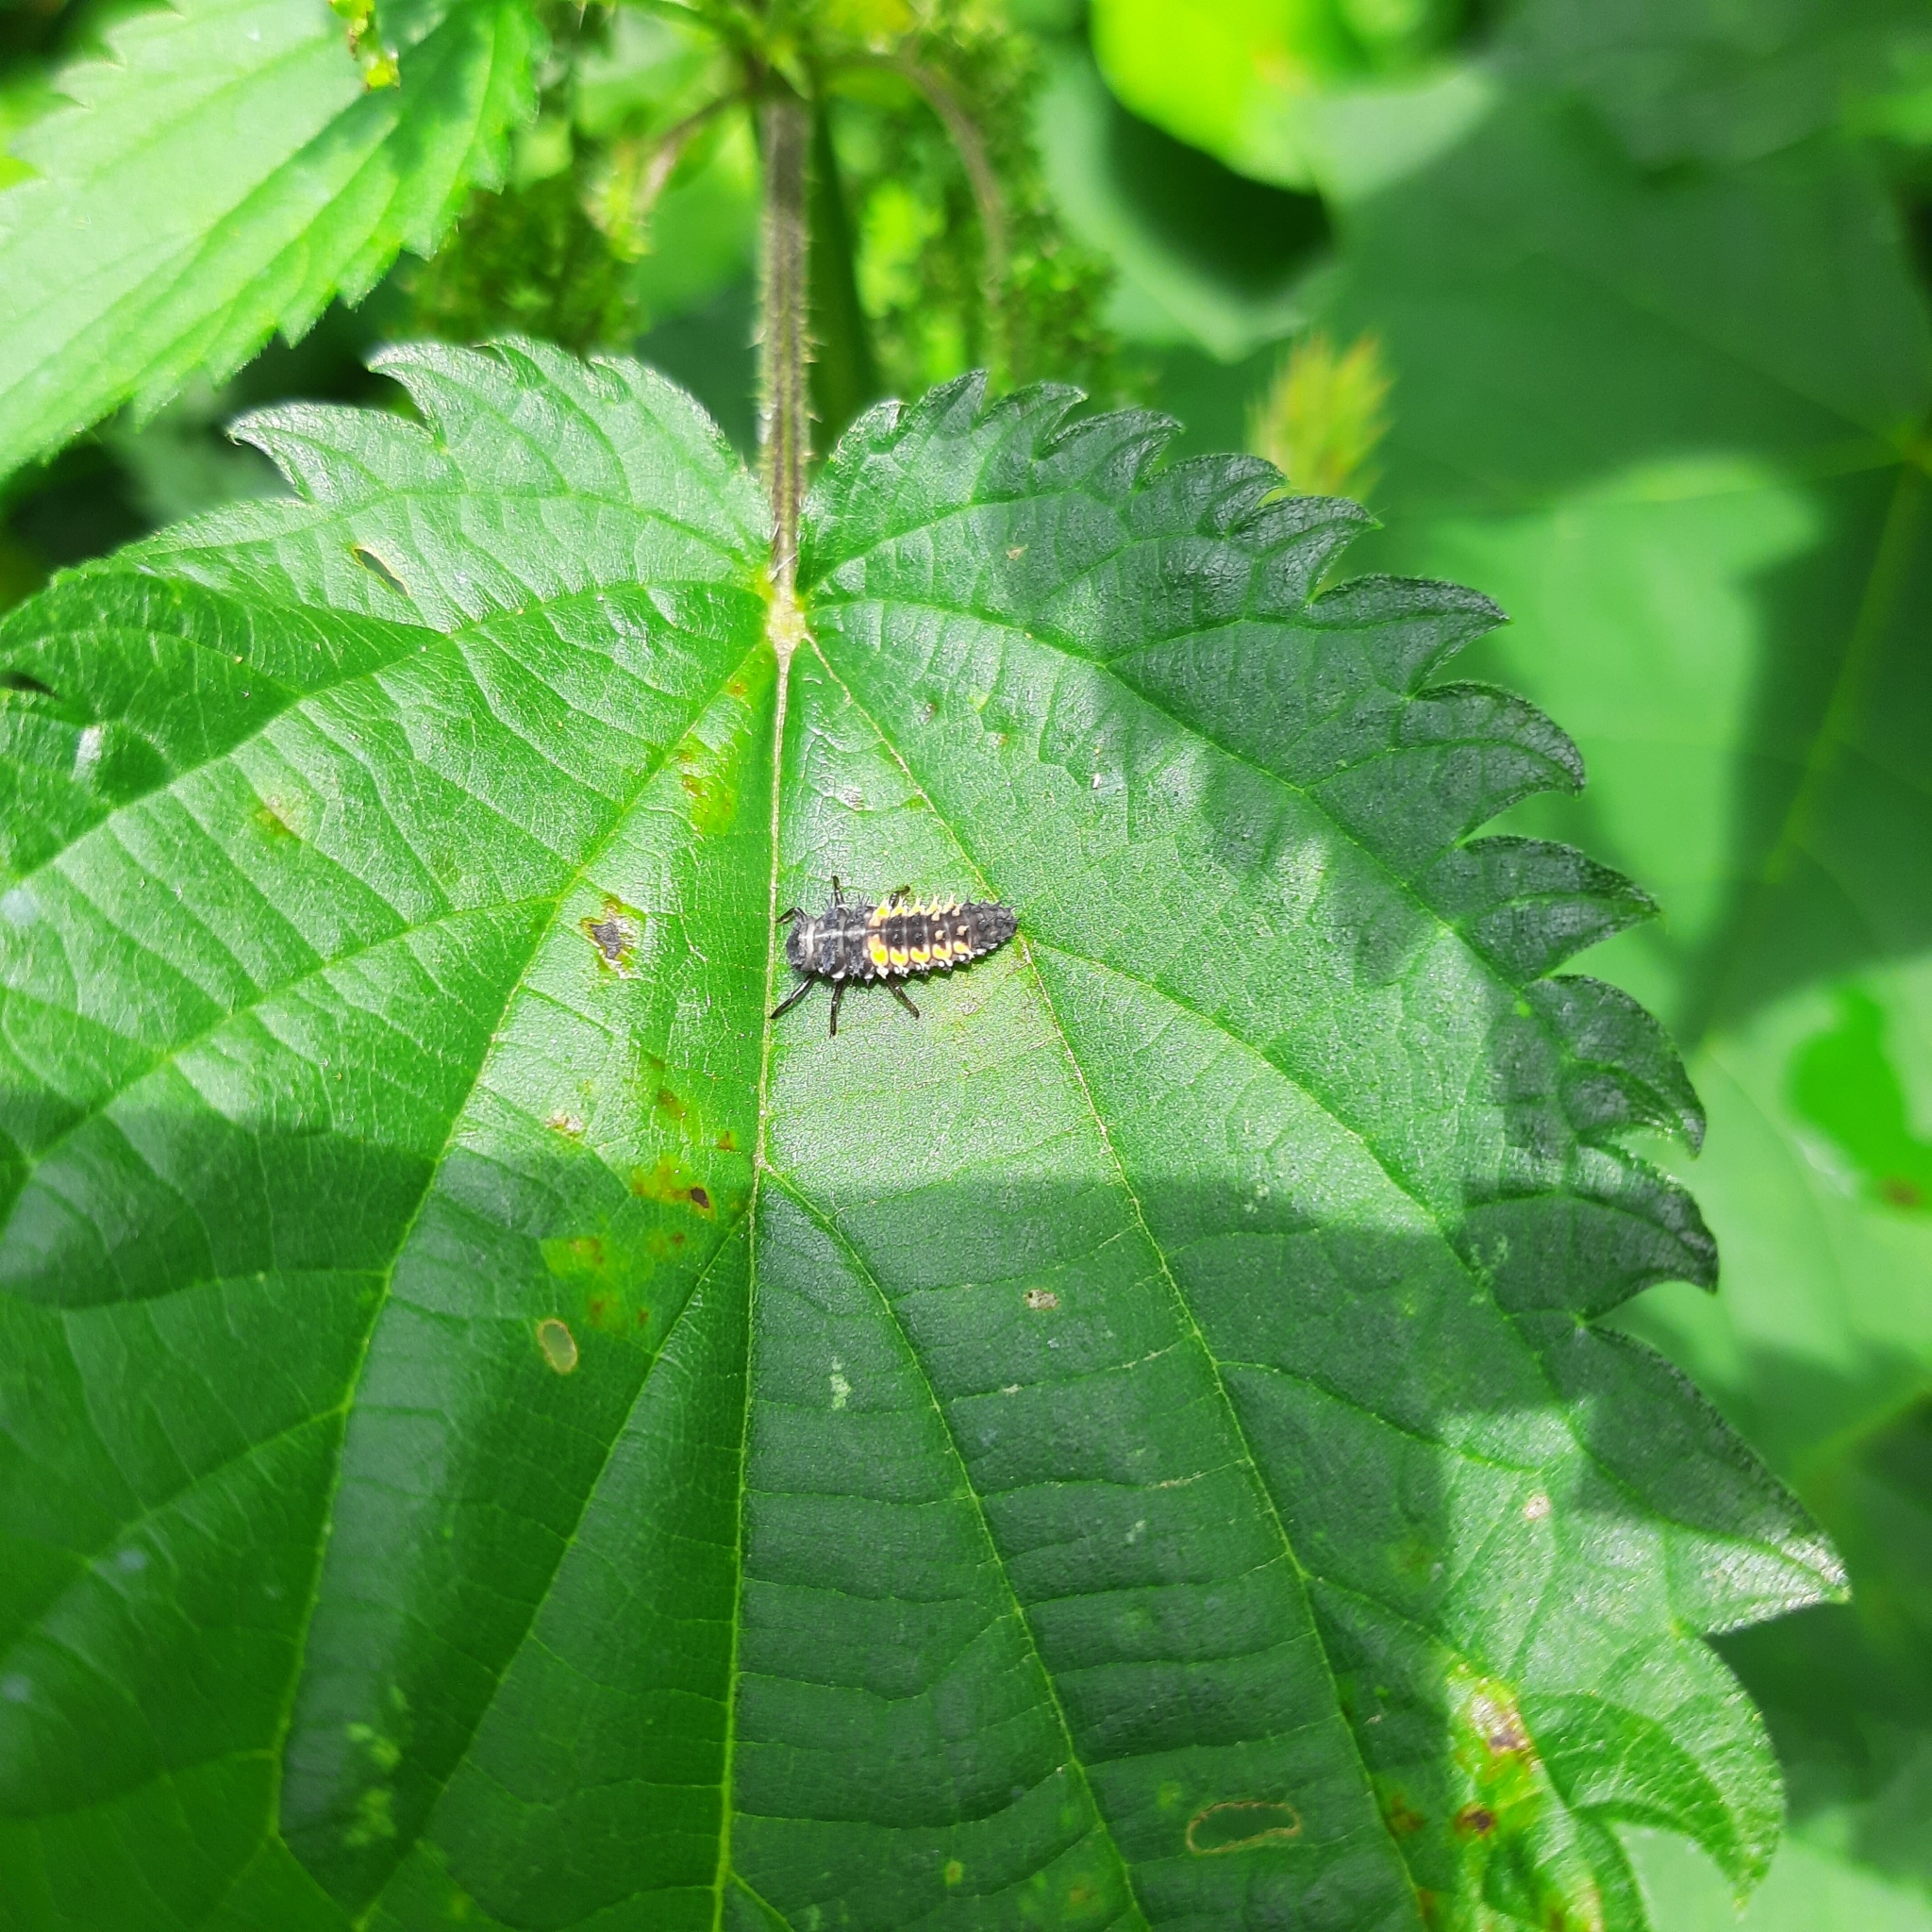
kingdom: Animalia
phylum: Arthropoda
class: Insecta
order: Coleoptera
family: Coccinellidae
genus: Harmonia
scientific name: Harmonia axyridis
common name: Harlequin ladybird
